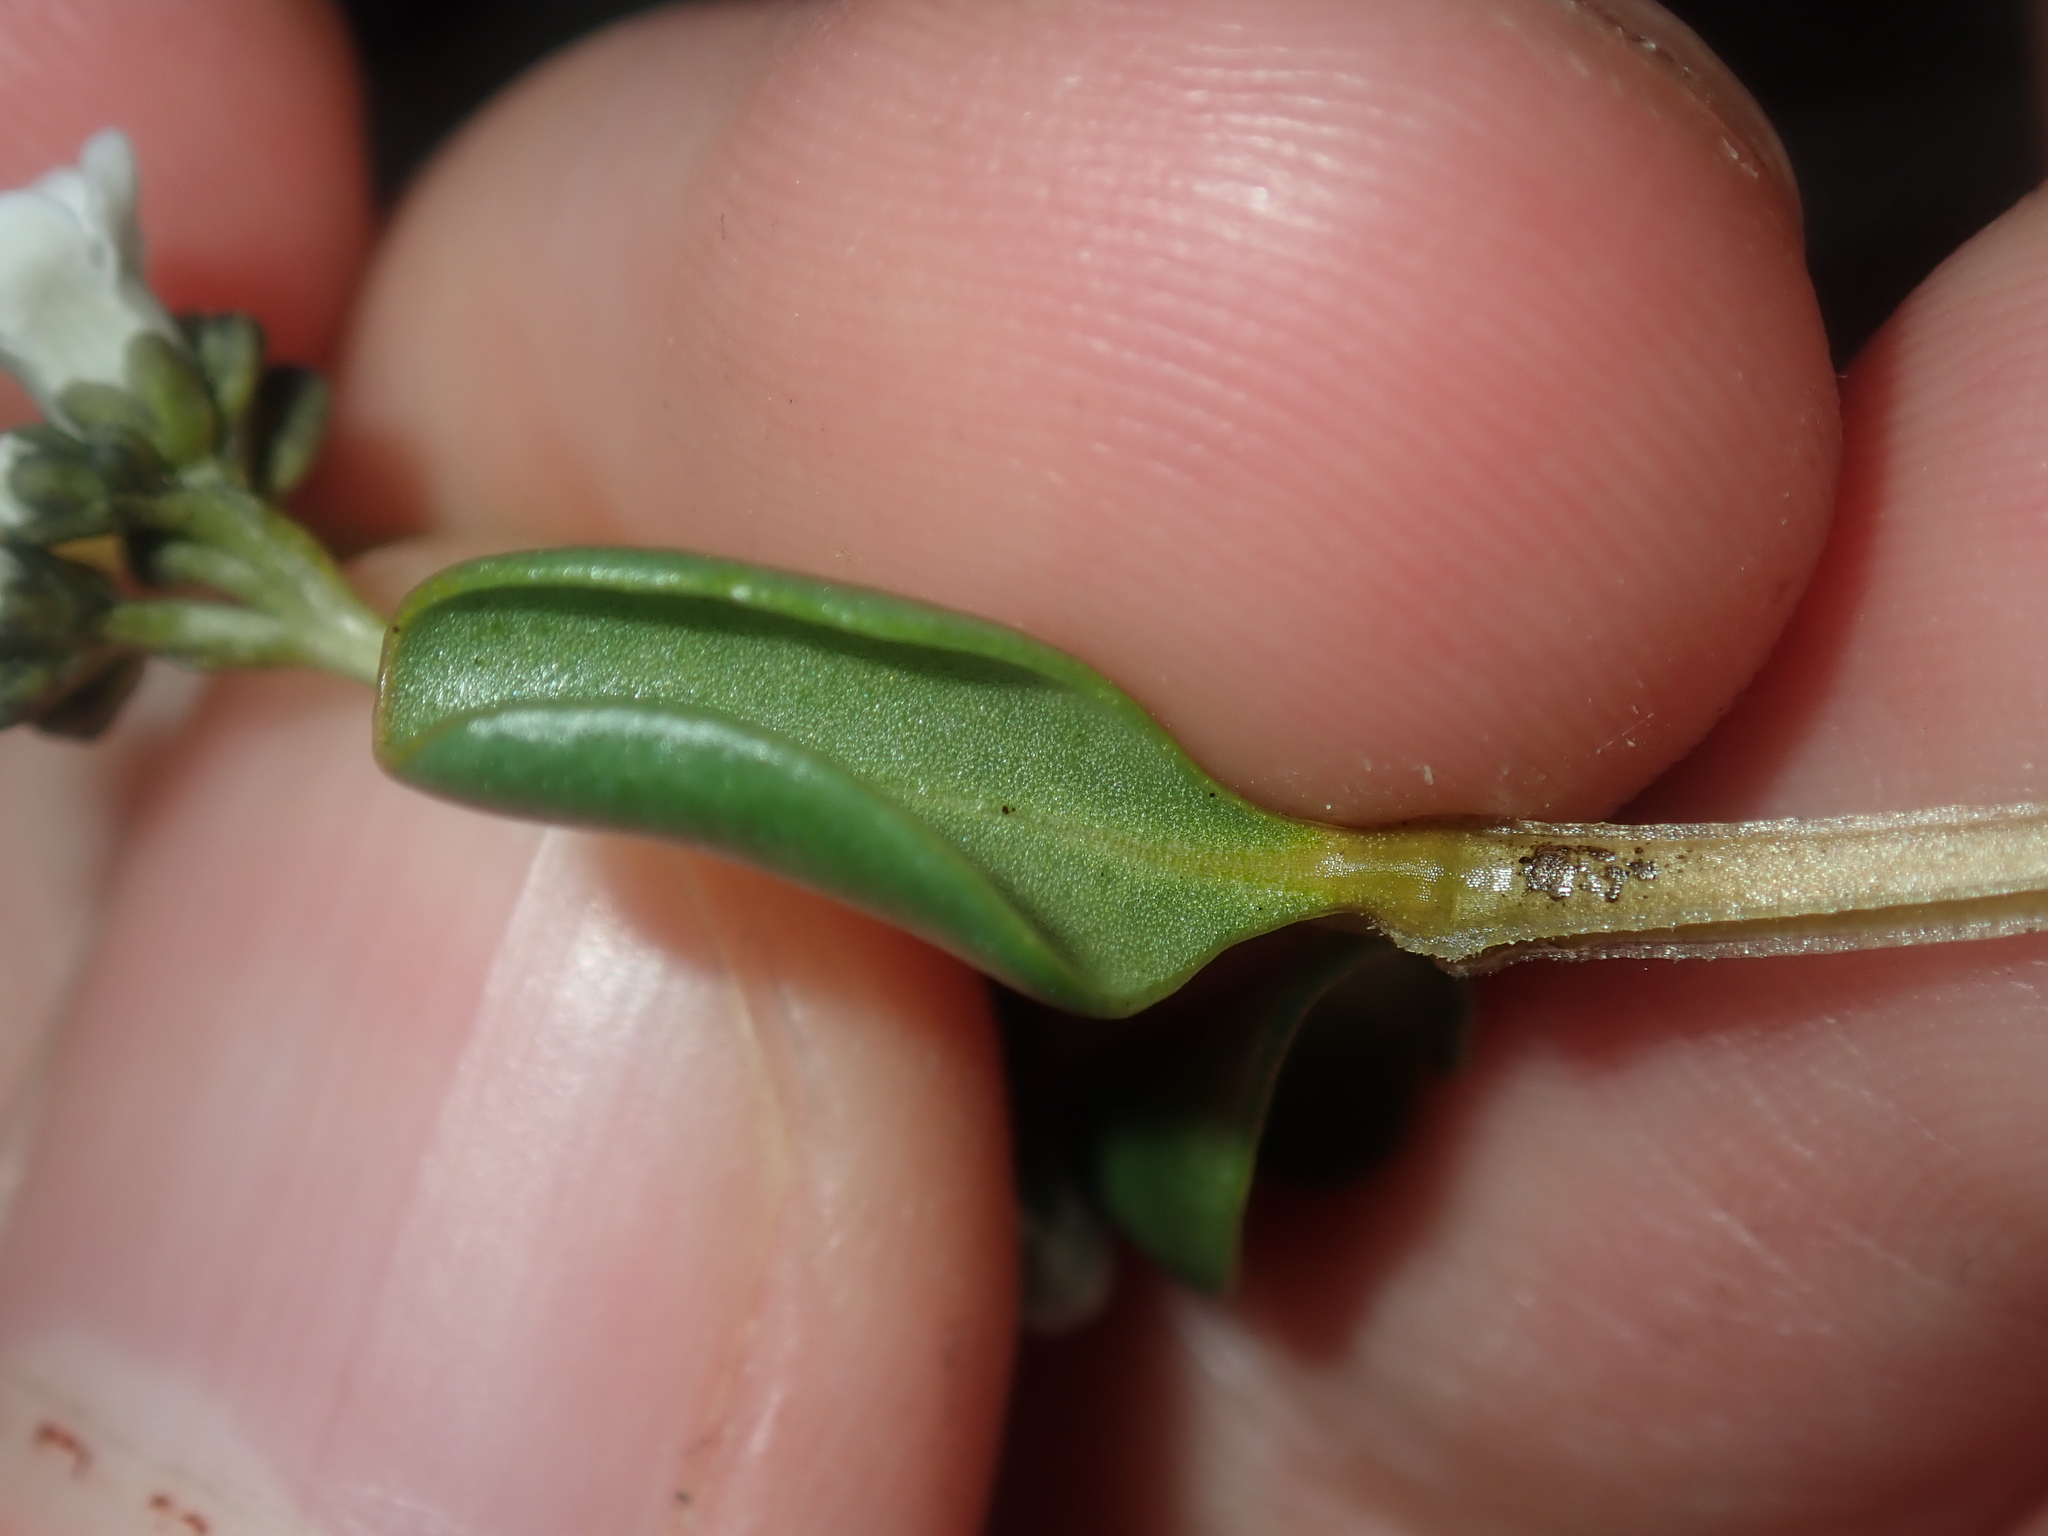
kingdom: Plantae
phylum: Tracheophyta
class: Magnoliopsida
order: Gentianales
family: Loganiaceae
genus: Logania
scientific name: Logania litoralis
